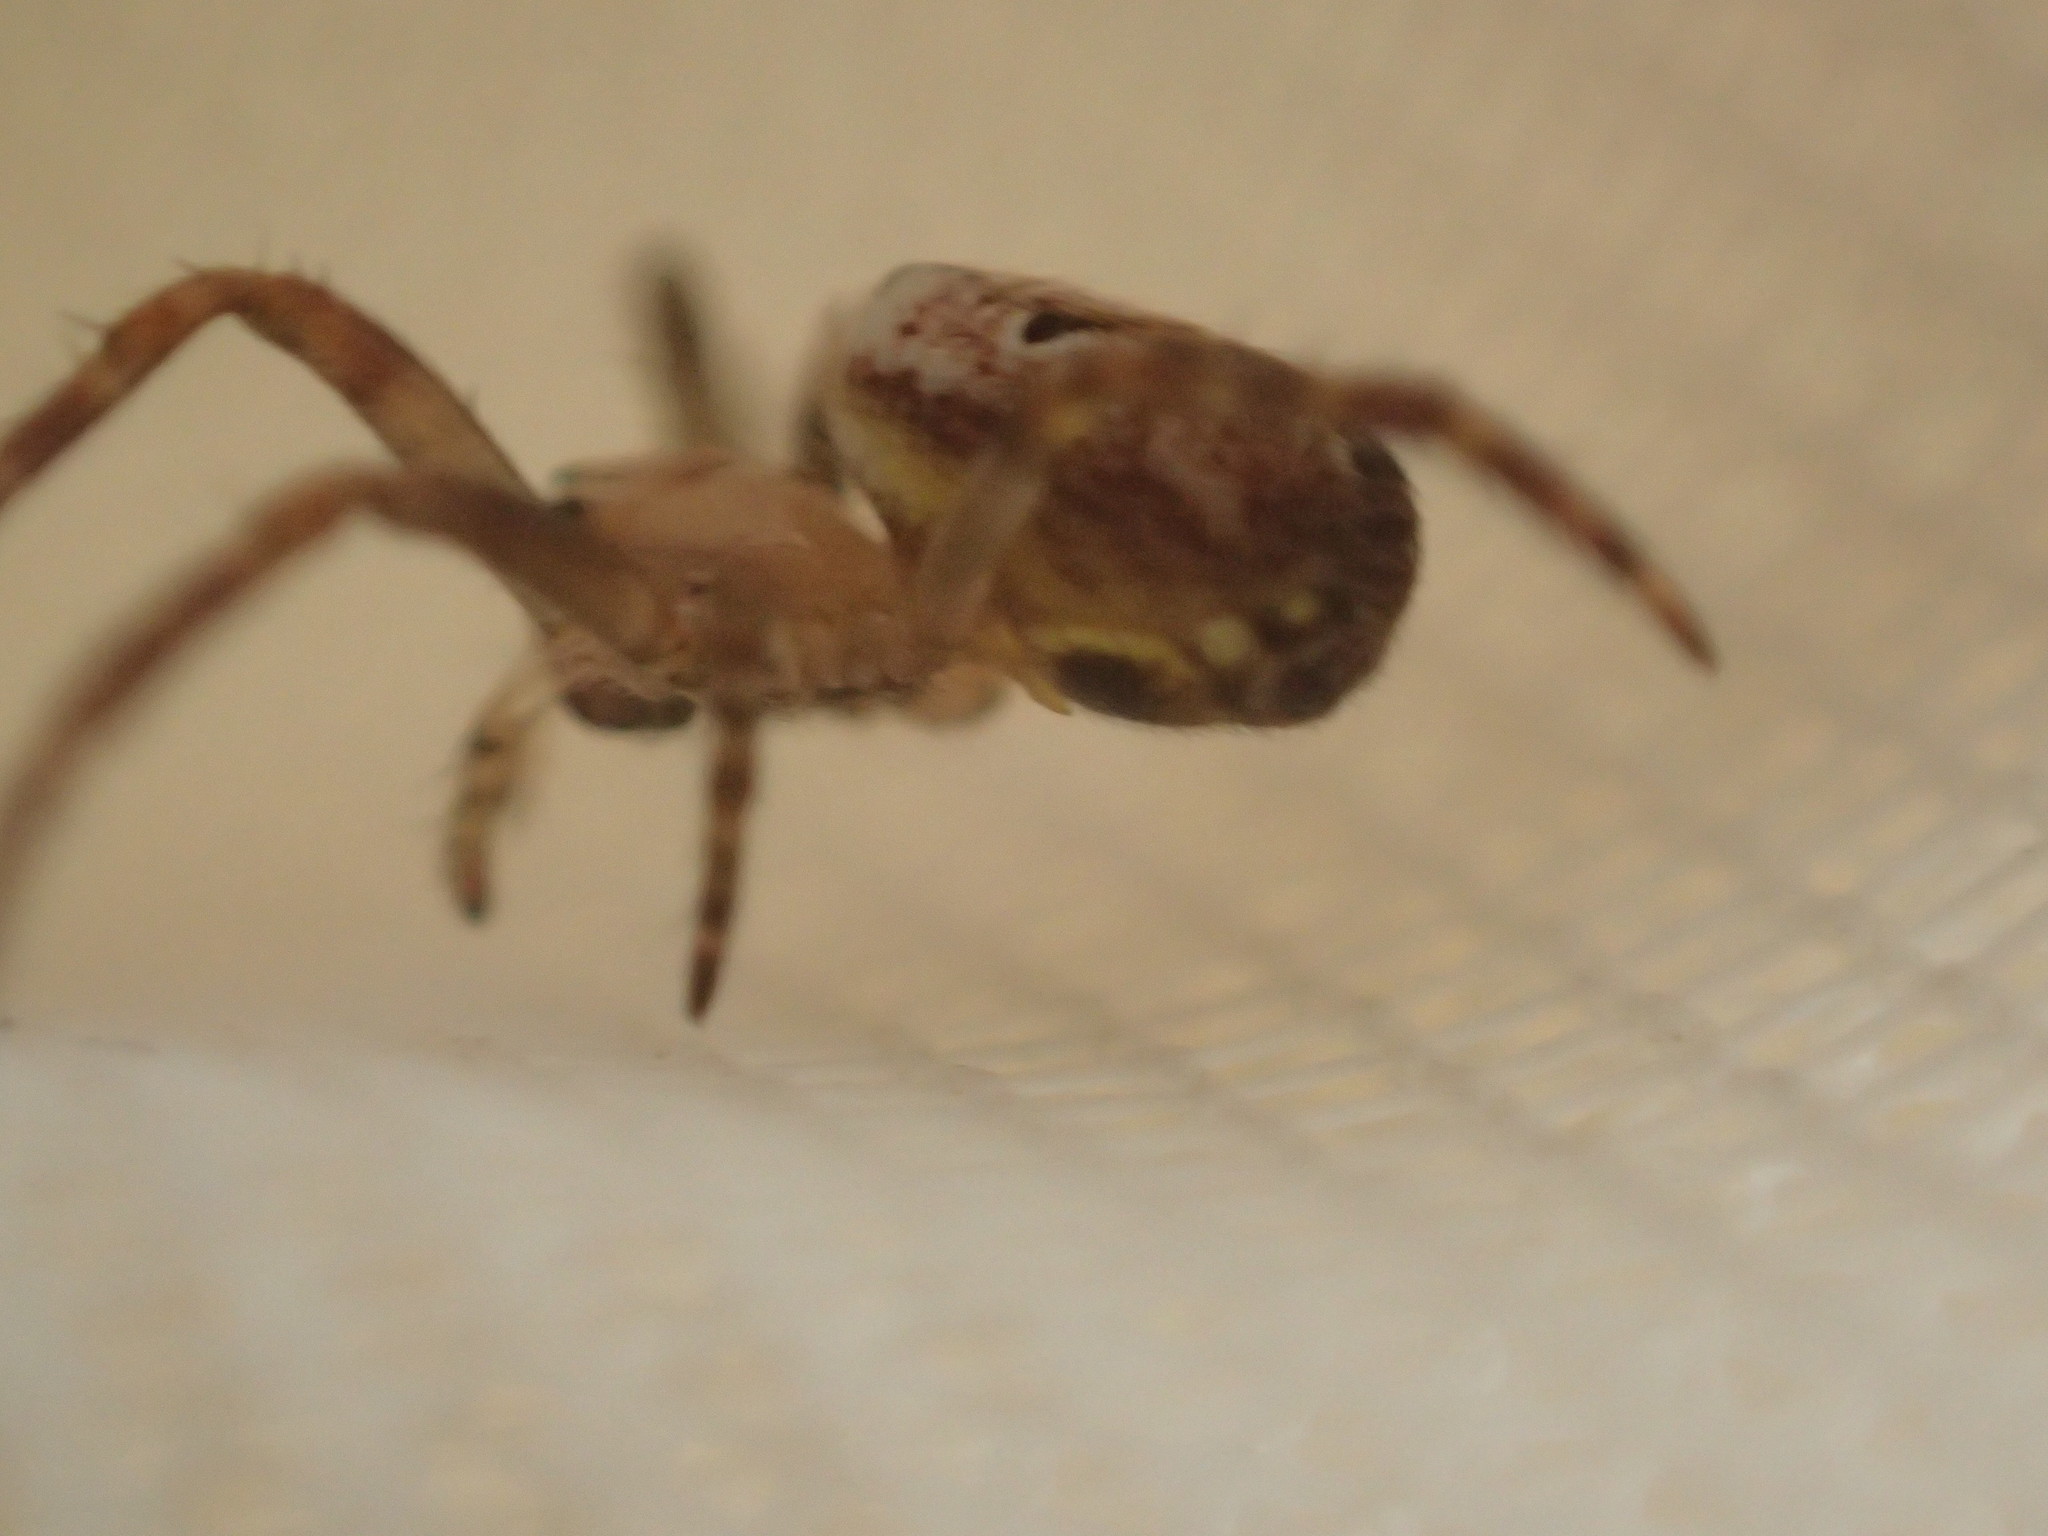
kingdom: Animalia
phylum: Arthropoda
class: Arachnida
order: Araneae
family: Araneidae
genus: Plebs
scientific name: Plebs eburnus
